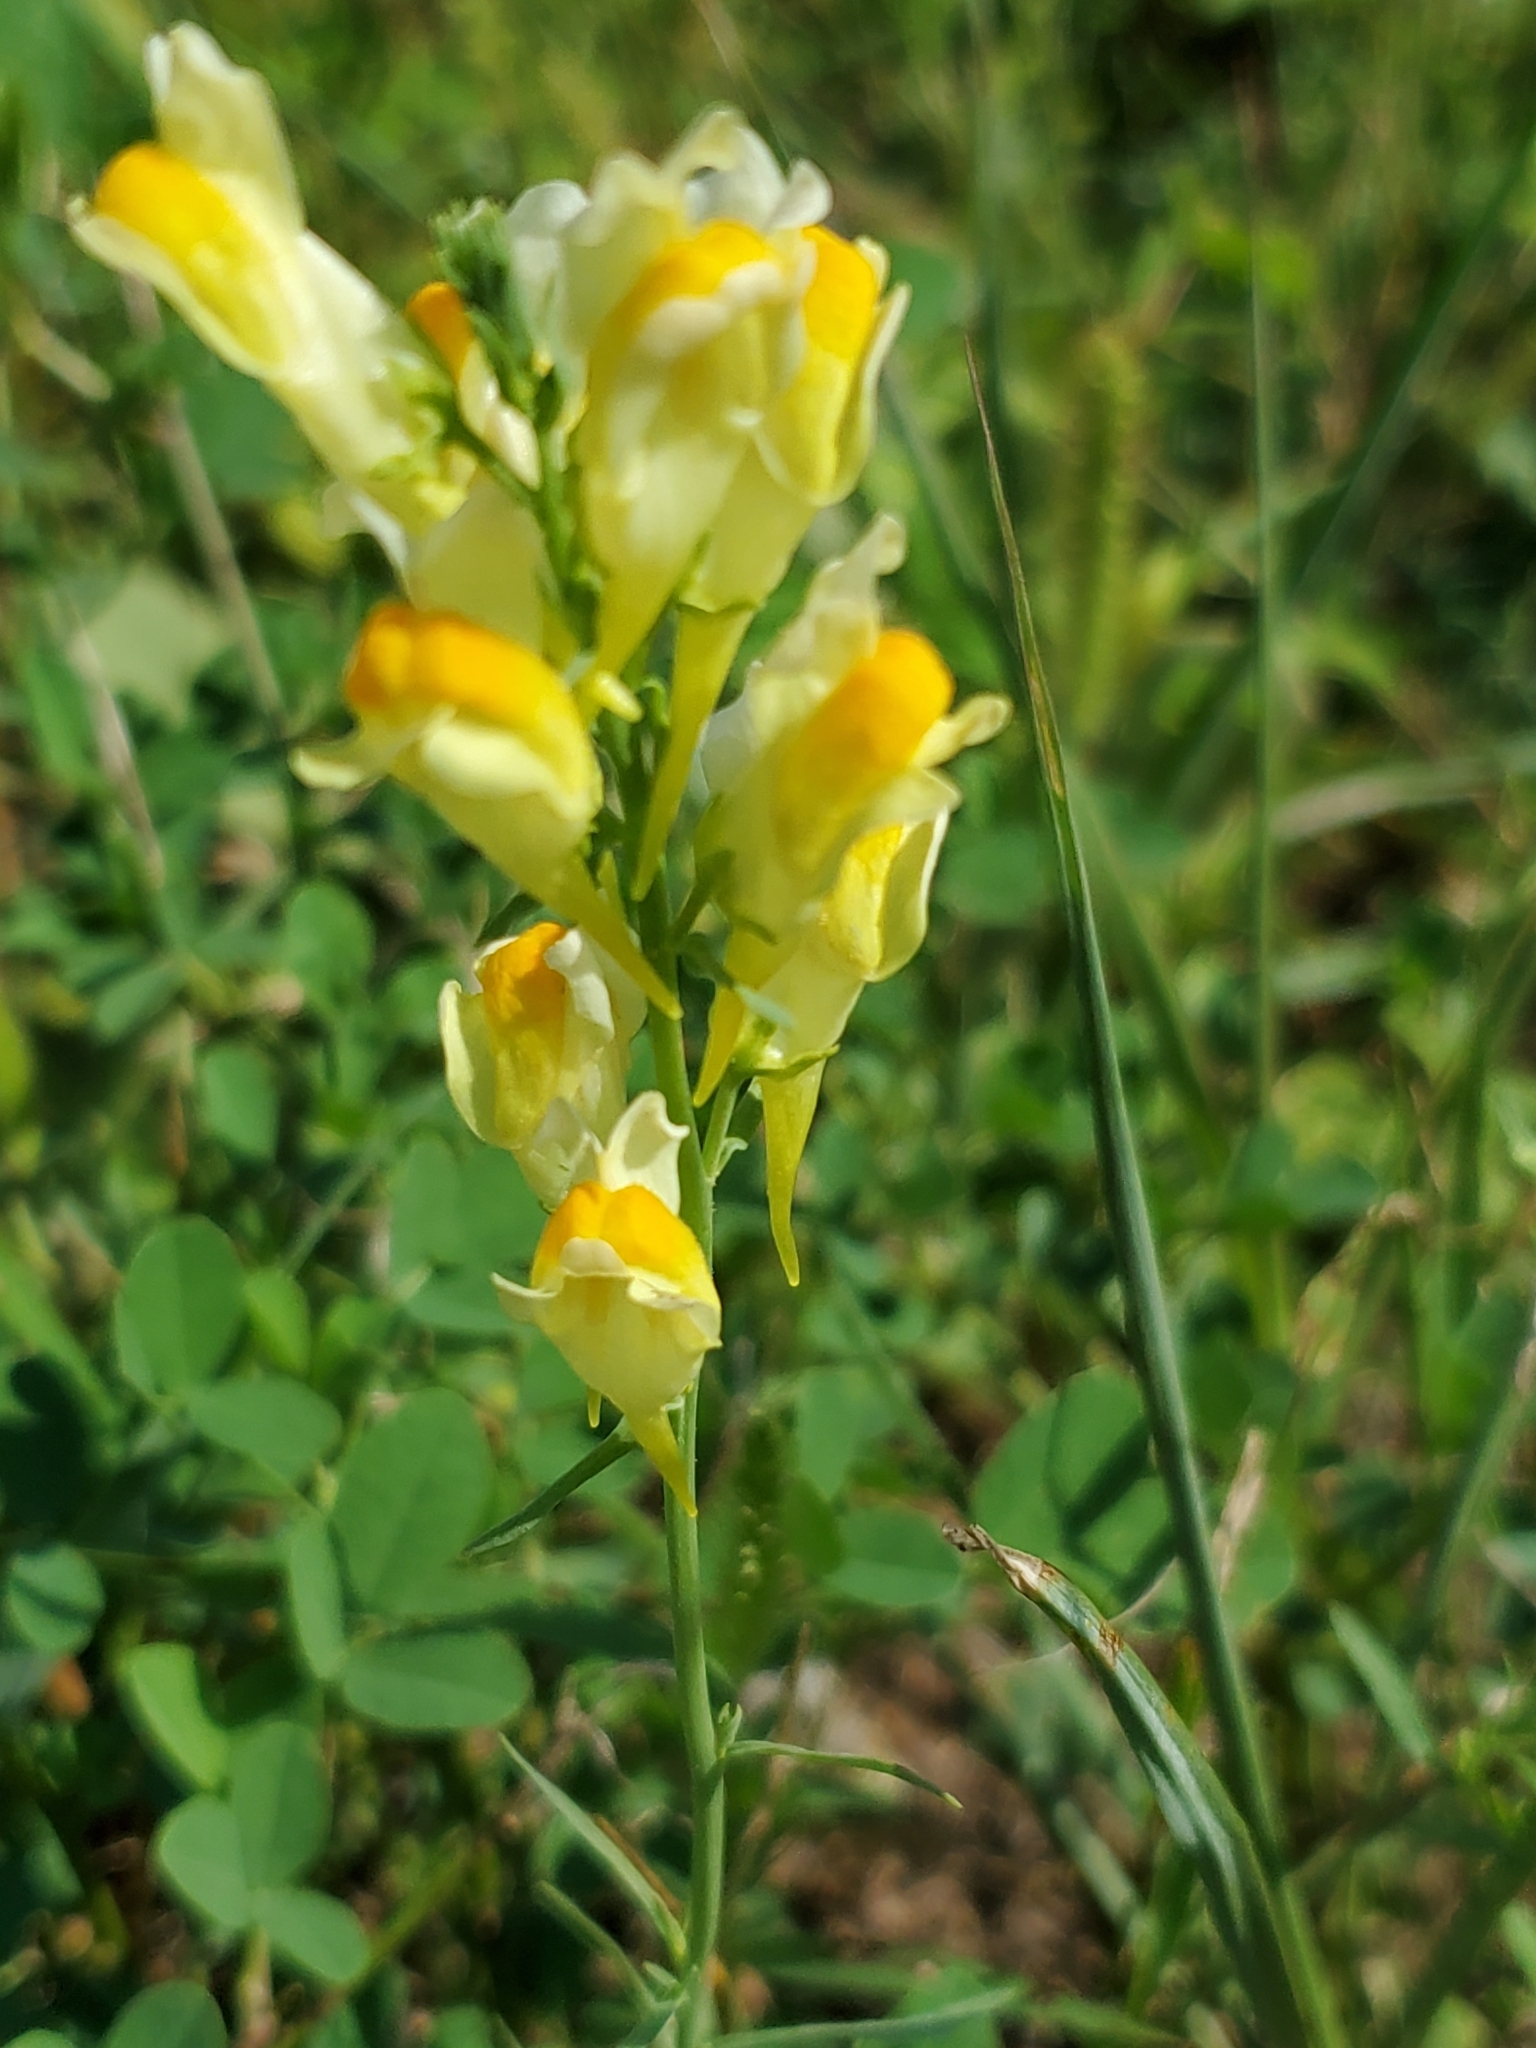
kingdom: Plantae
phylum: Tracheophyta
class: Magnoliopsida
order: Lamiales
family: Plantaginaceae
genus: Linaria
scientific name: Linaria vulgaris
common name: Butter and eggs
